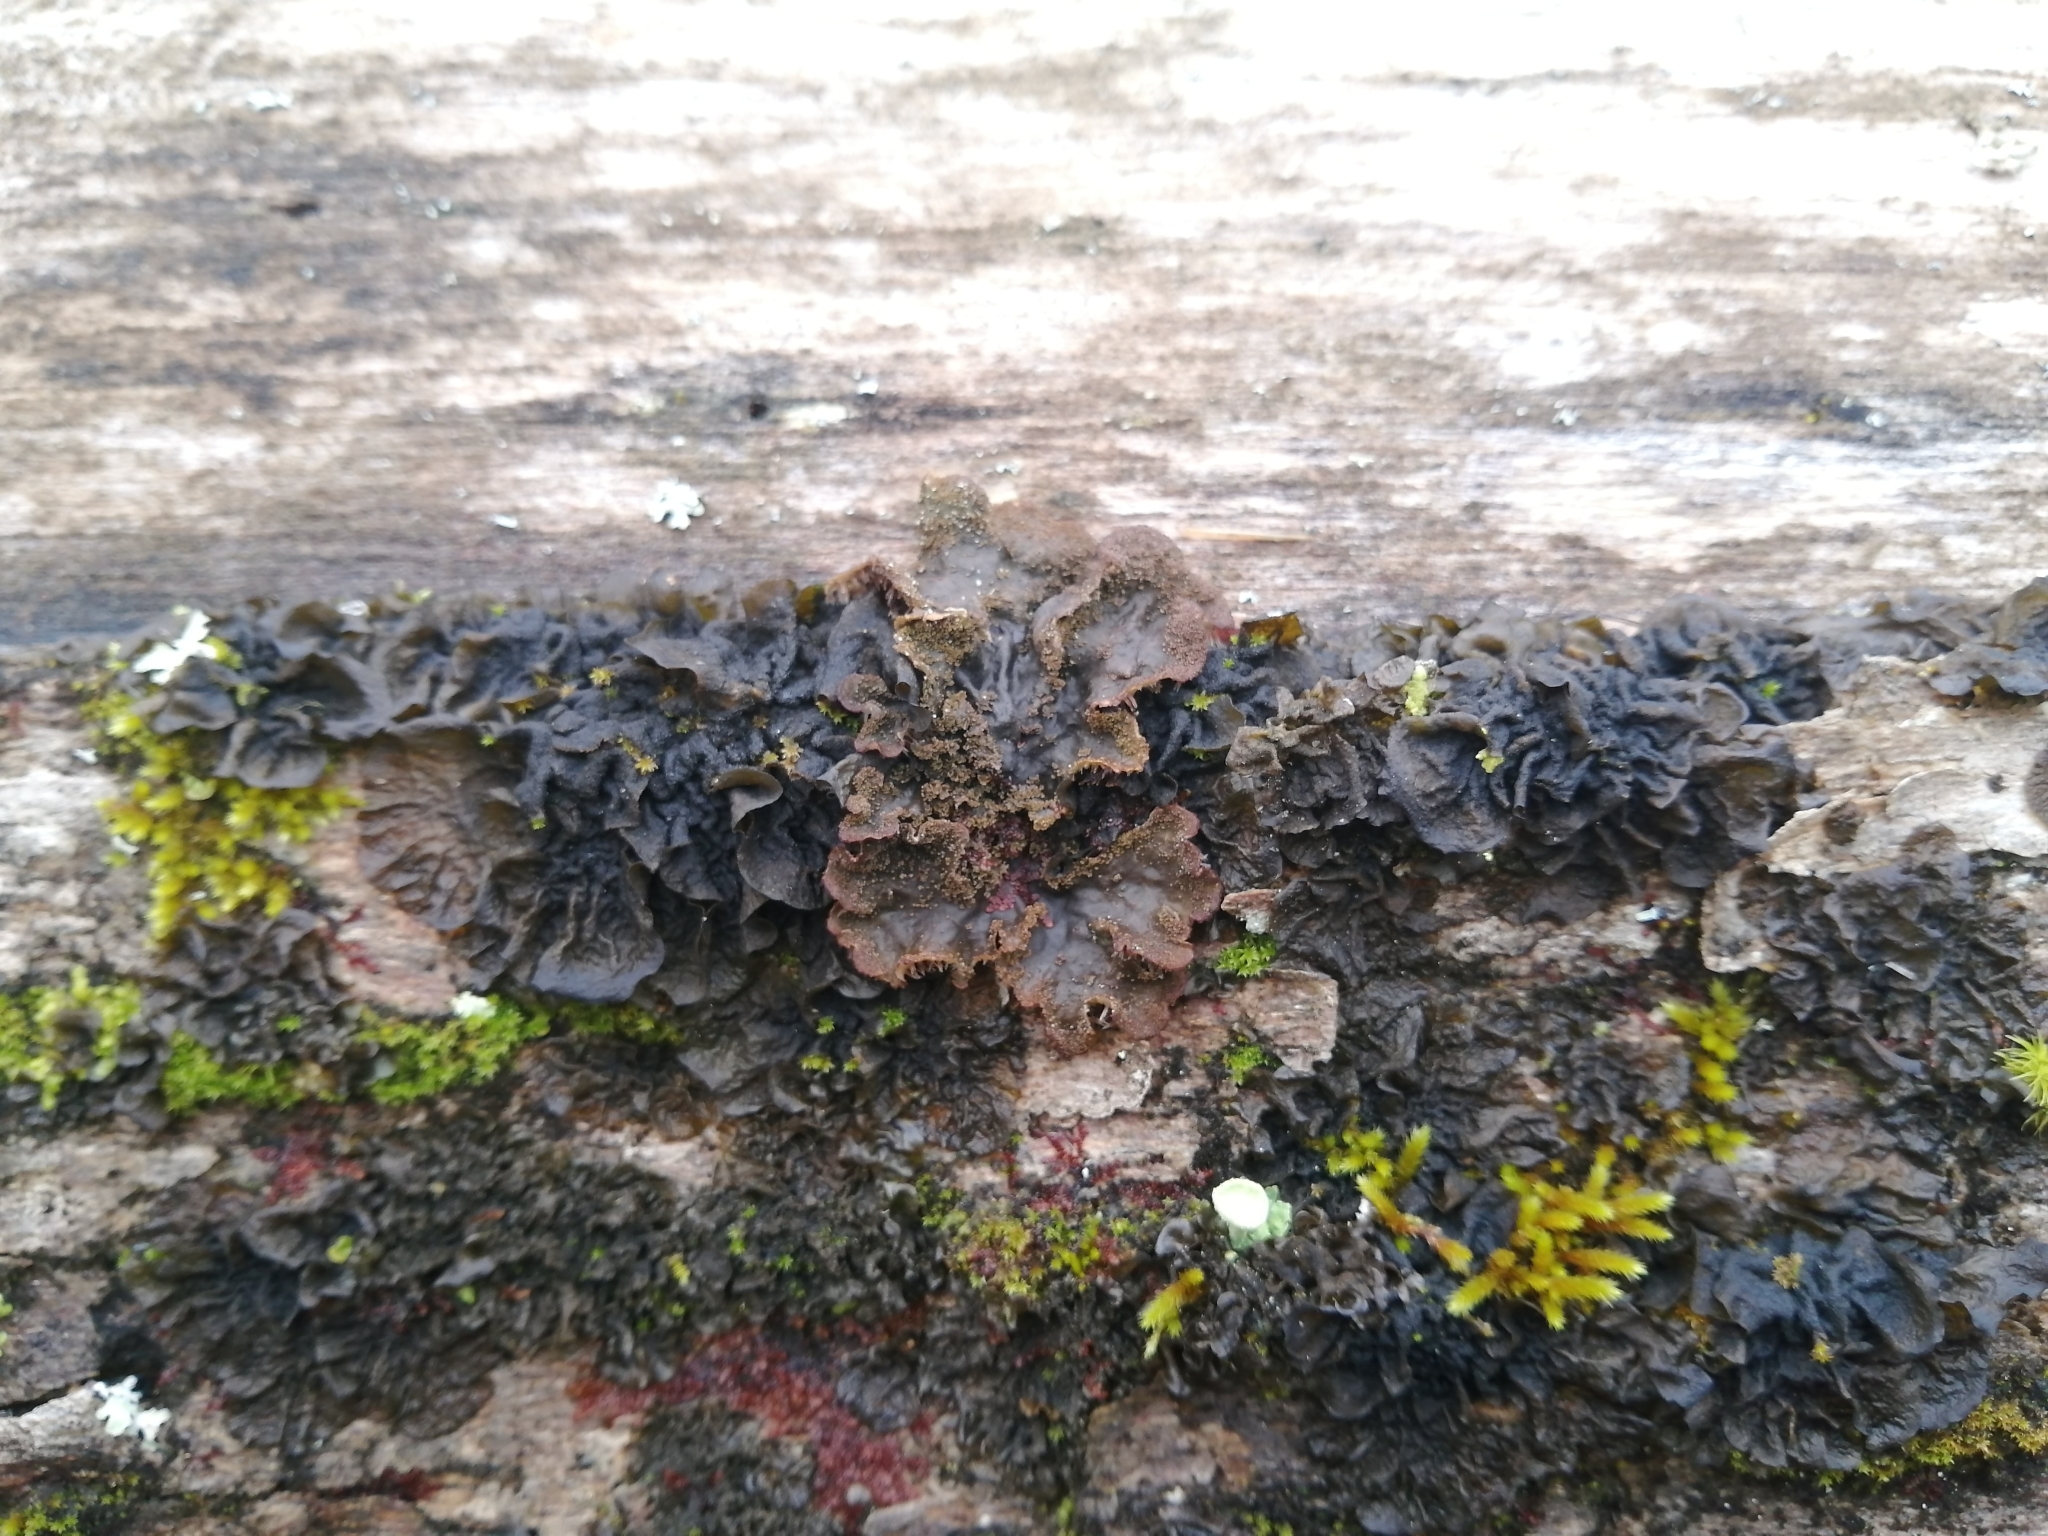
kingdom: Fungi
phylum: Ascomycota
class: Lecanoromycetes
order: Peltigerales
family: Peltigeraceae
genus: Peltigera
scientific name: Peltigera evansiana
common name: Peppered pelt lichen
